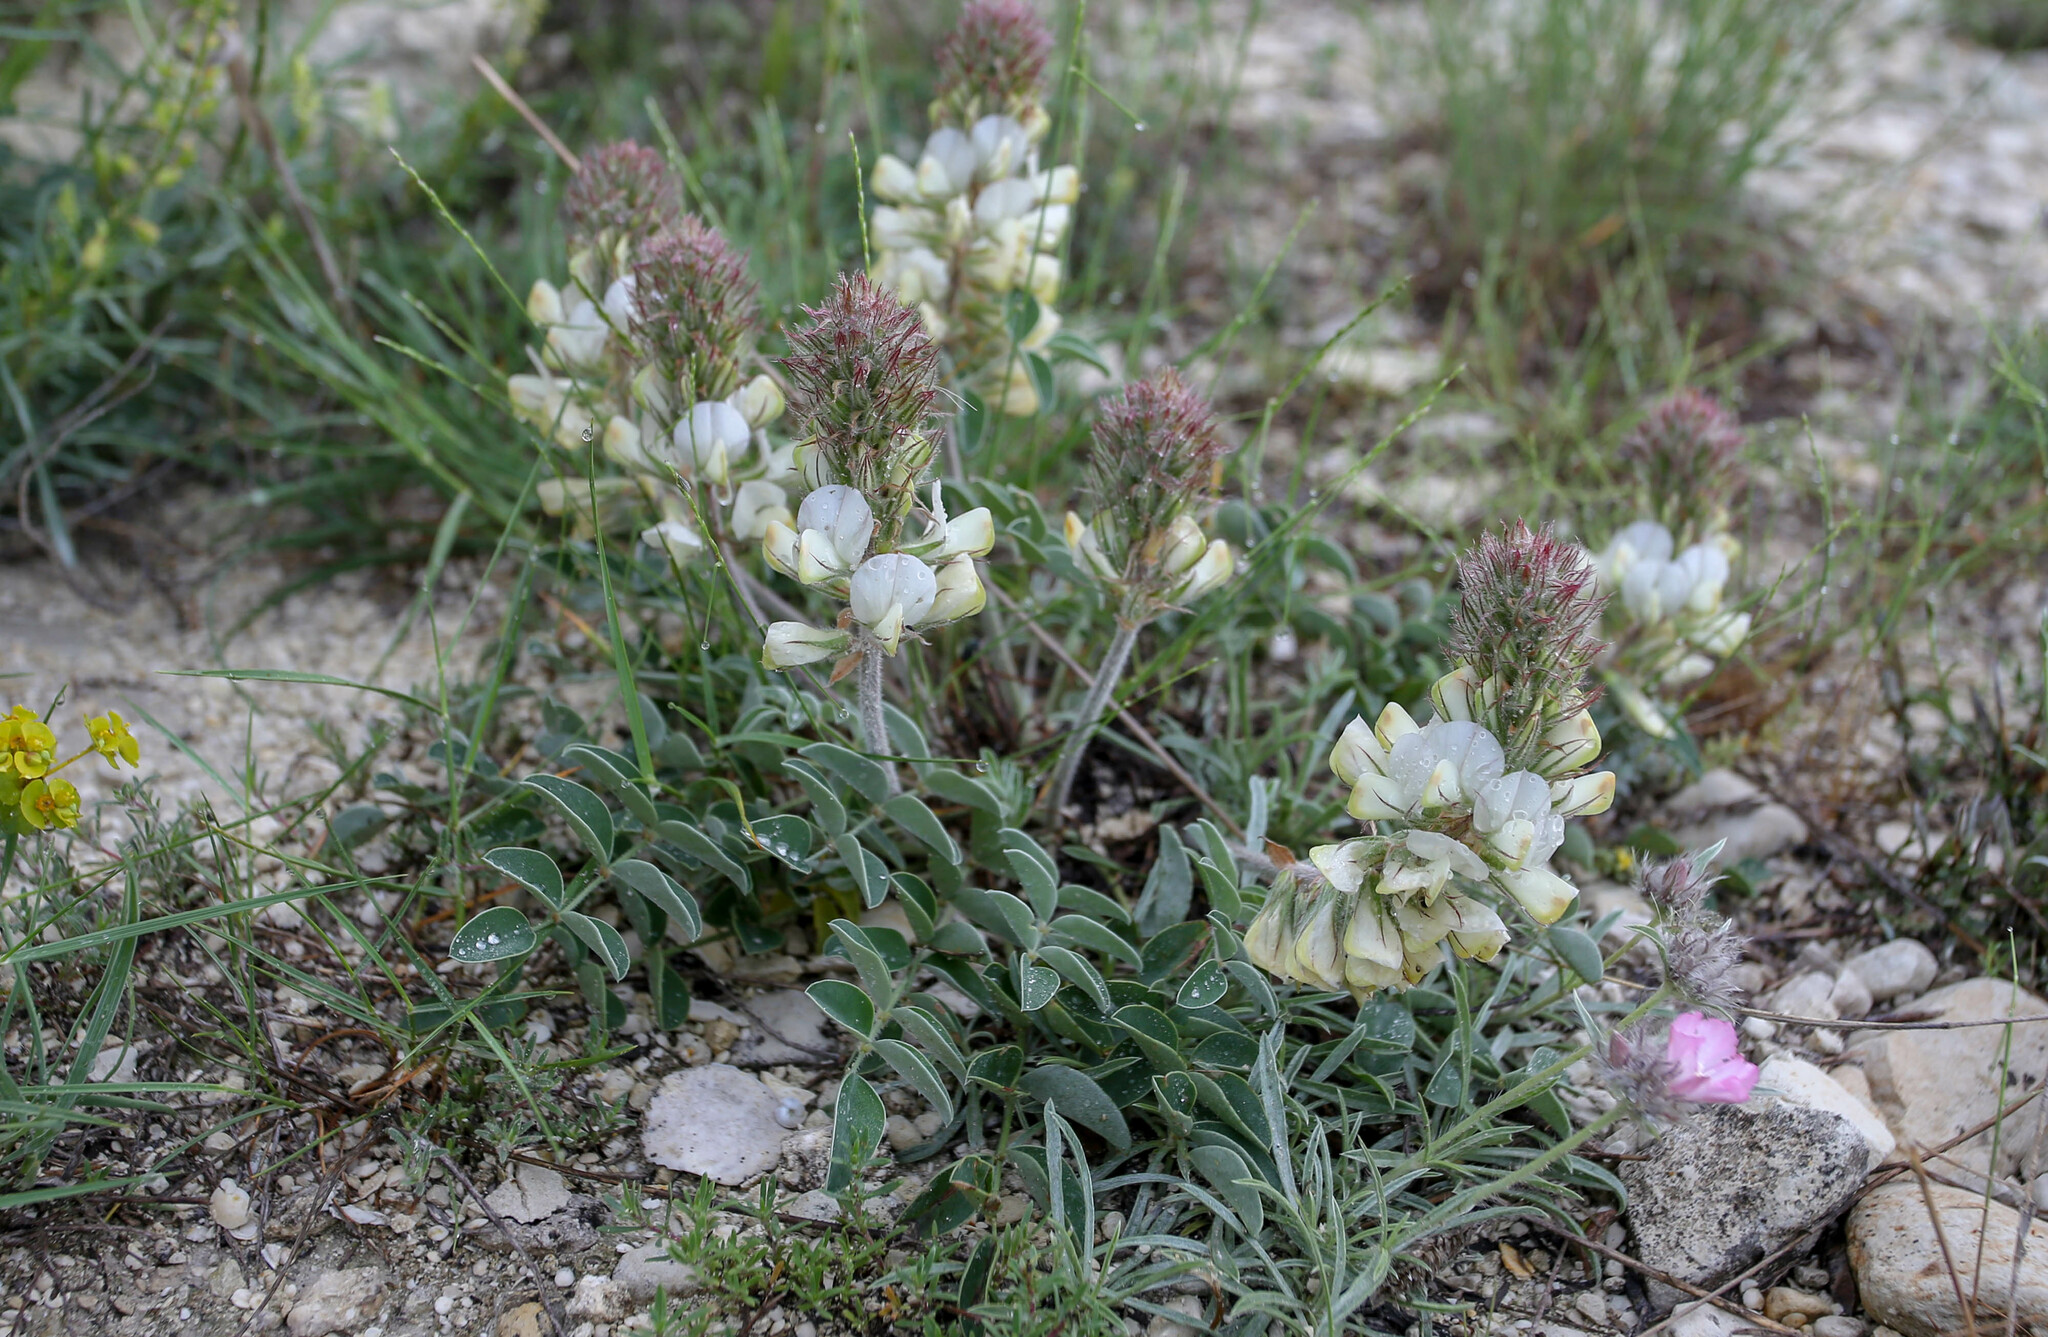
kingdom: Plantae
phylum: Tracheophyta
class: Magnoliopsida
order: Fabales
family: Fabaceae
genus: Hedysarum
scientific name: Hedysarum candidum
